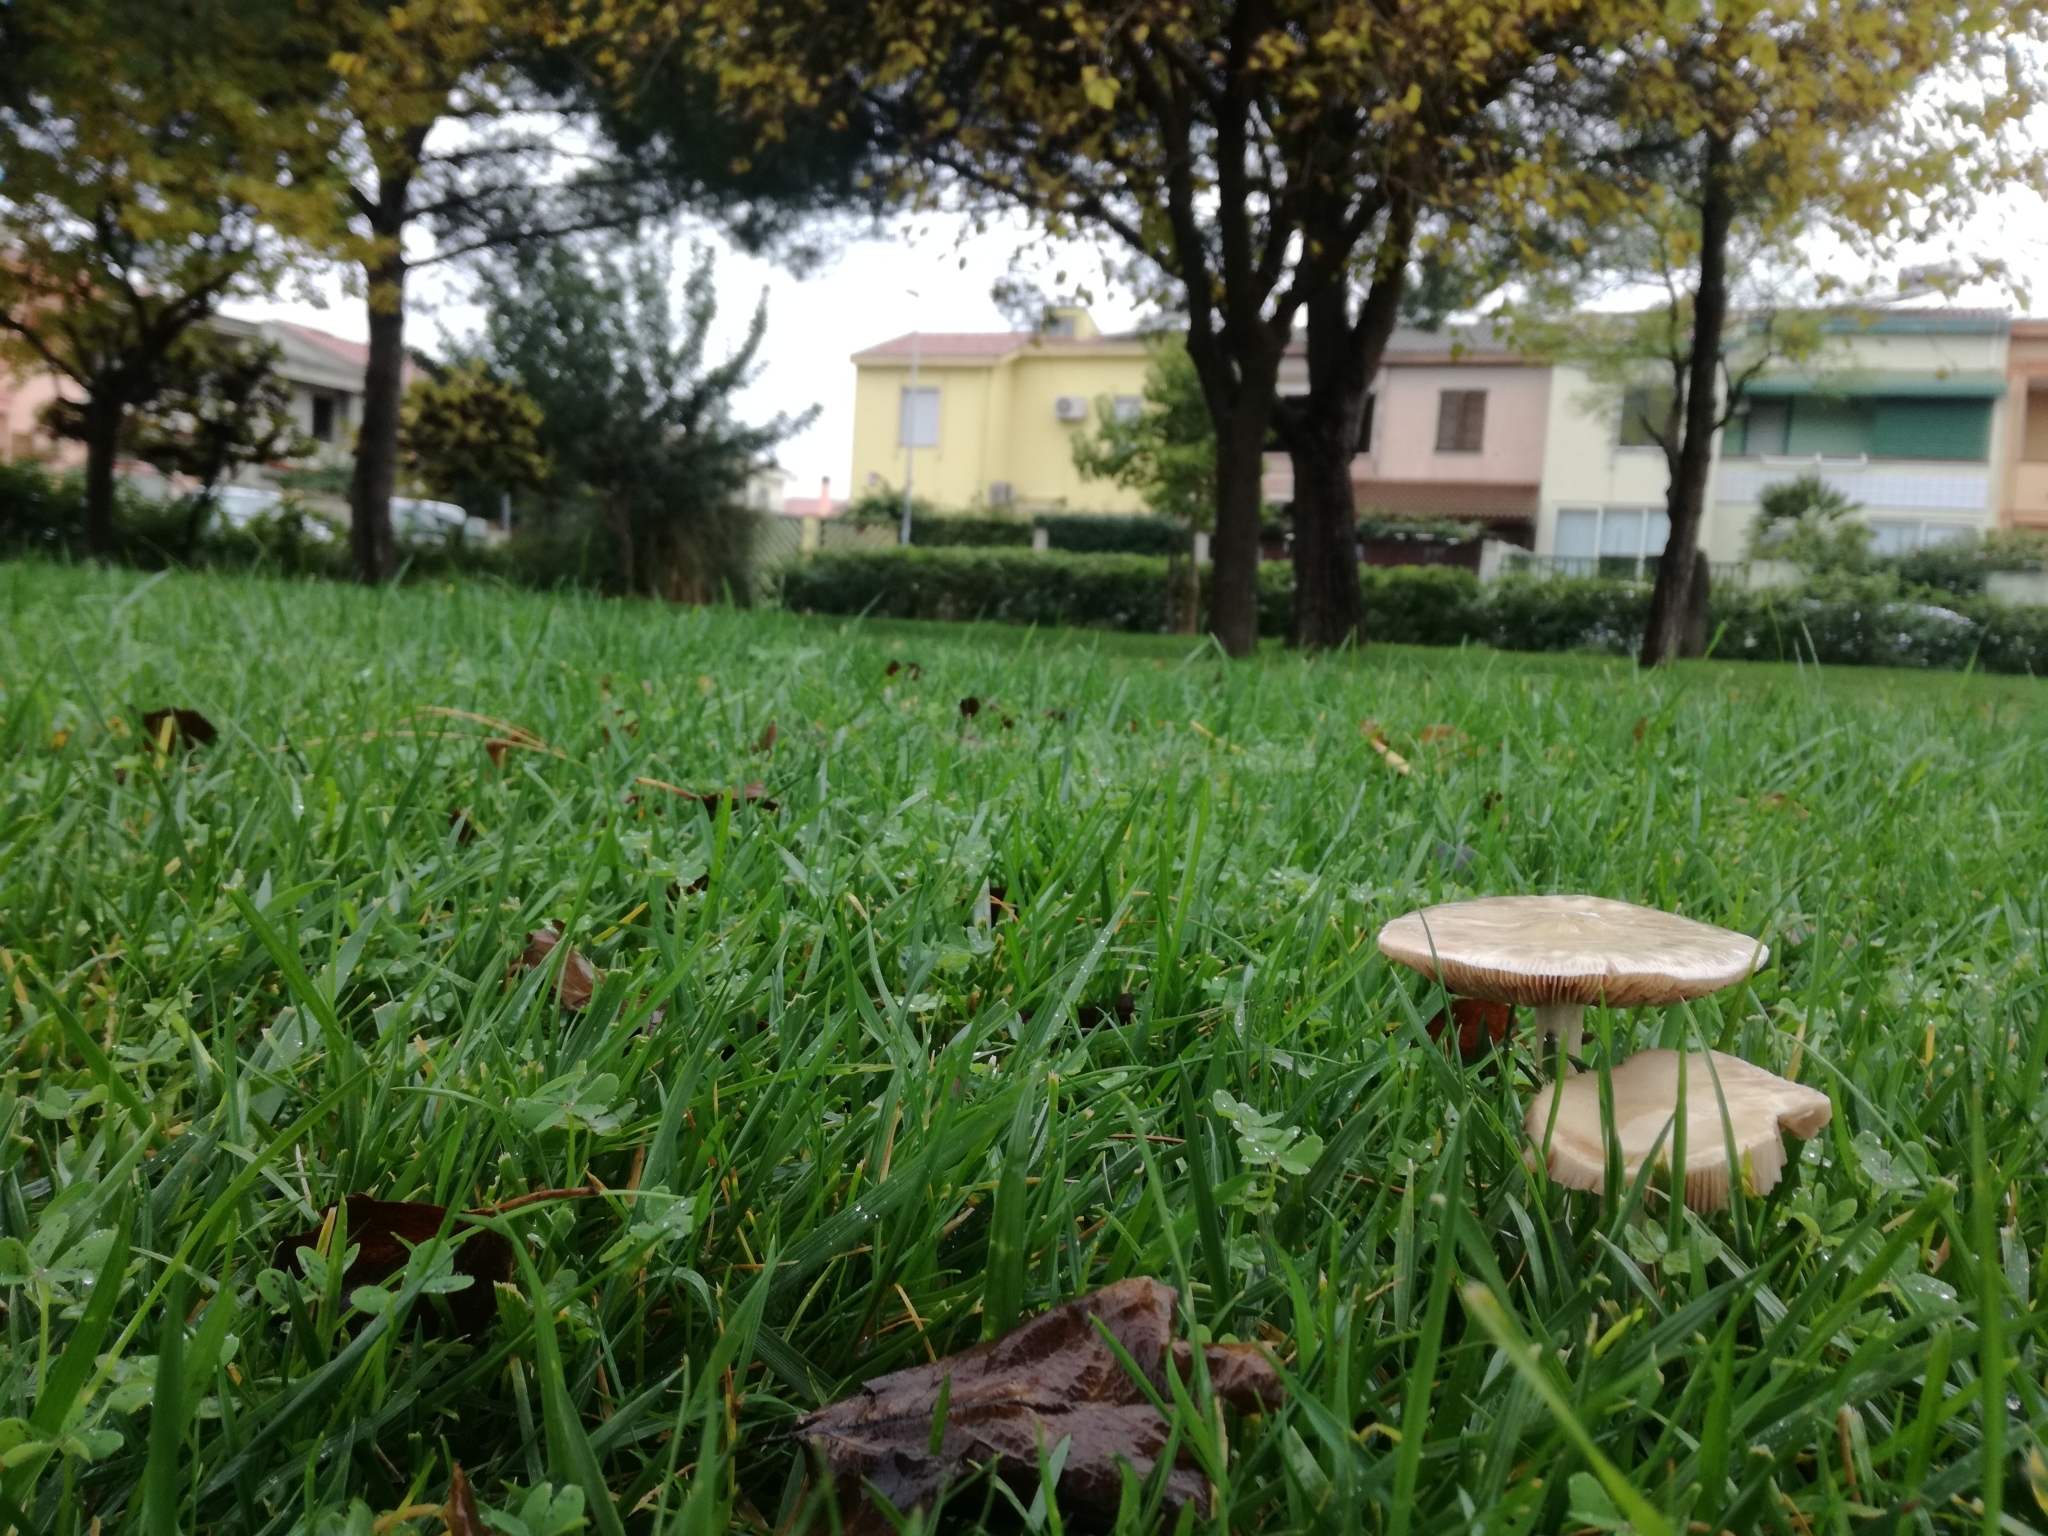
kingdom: Fungi
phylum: Basidiomycota
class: Agaricomycetes
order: Agaricales
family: Pluteaceae
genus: Volvopluteus
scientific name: Volvopluteus gloiocephalus
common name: Stubble rosegill
